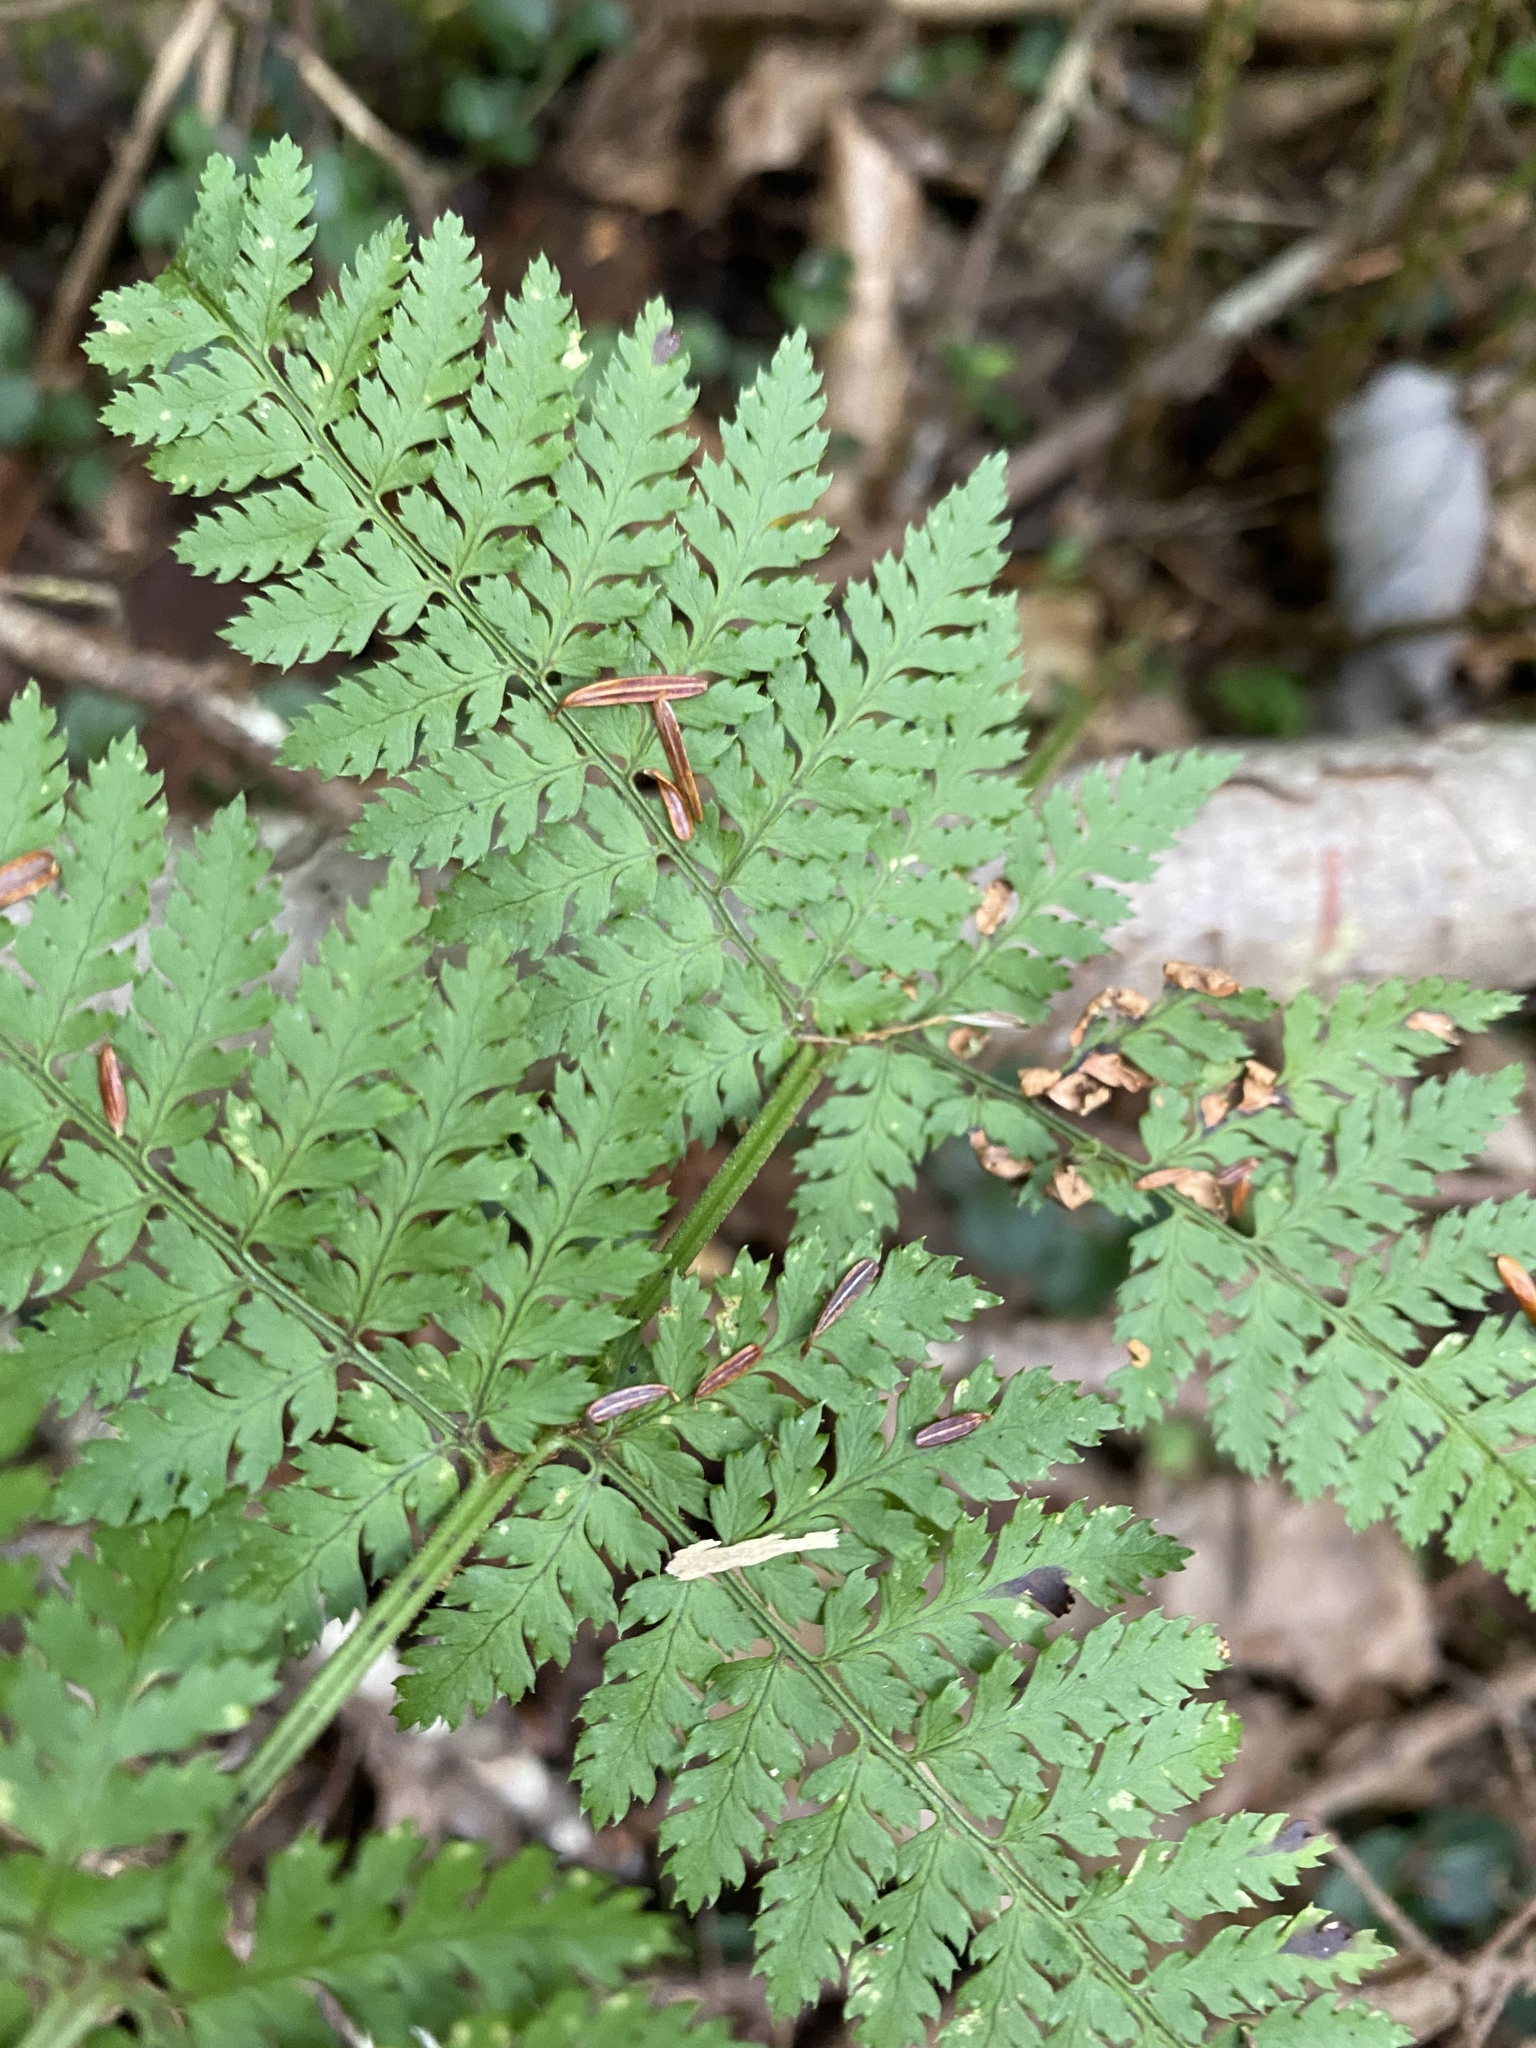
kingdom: Plantae
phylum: Tracheophyta
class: Polypodiopsida
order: Polypodiales
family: Dryopteridaceae
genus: Dryopteris
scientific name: Dryopteris intermedia
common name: Evergreen wood fern
